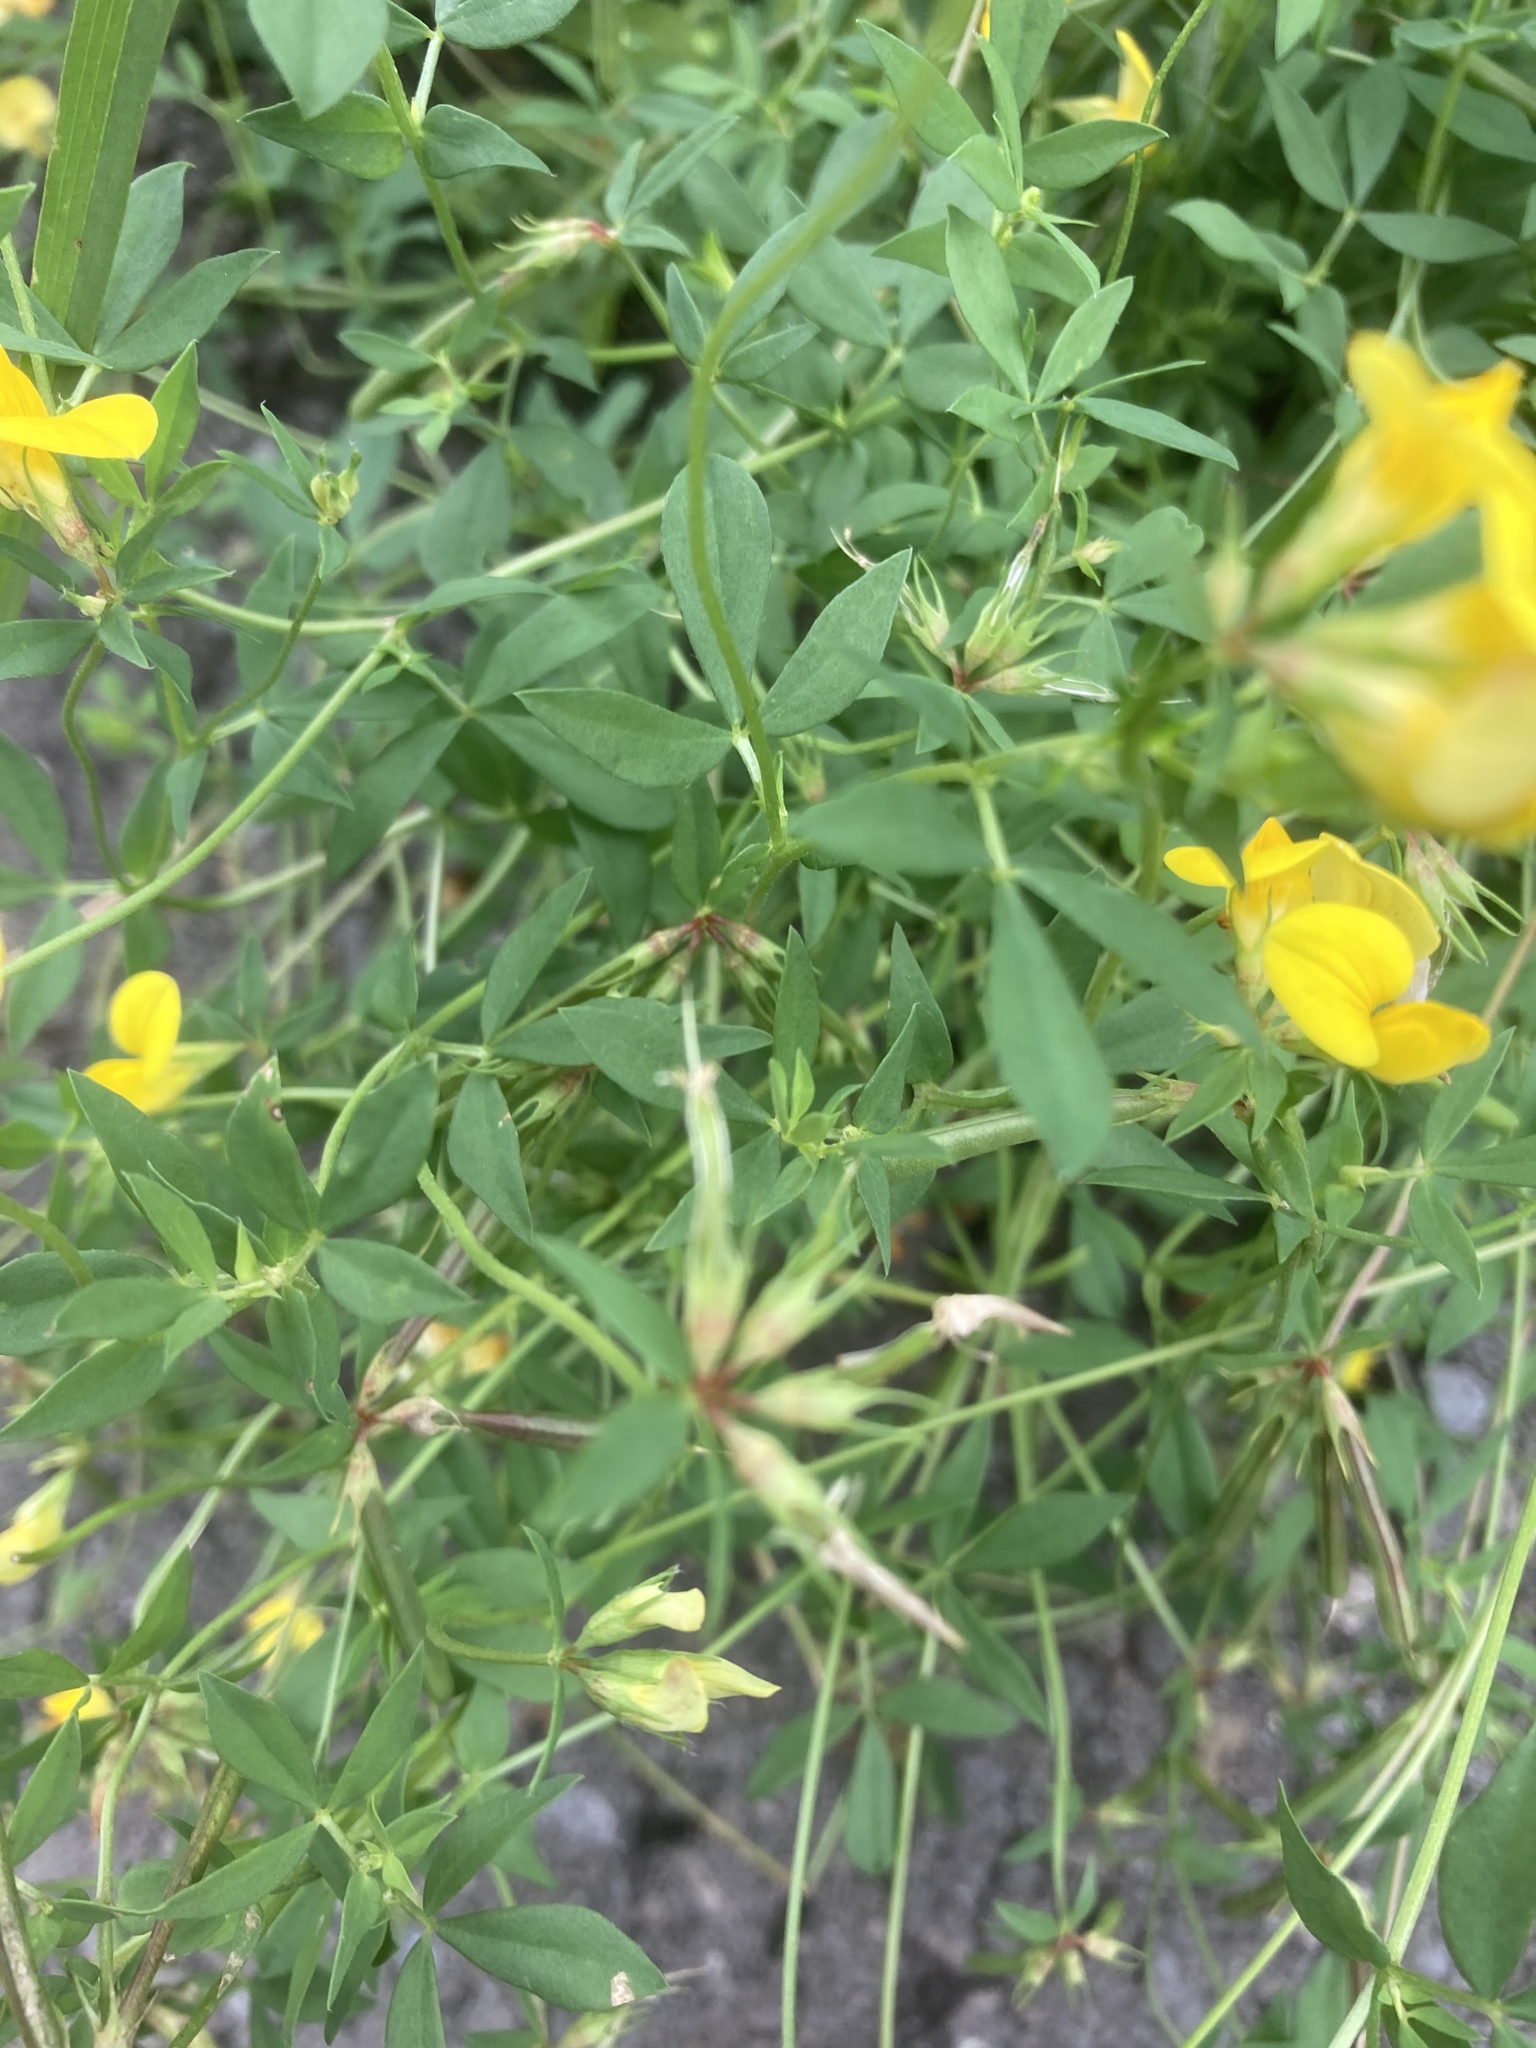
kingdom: Plantae
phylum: Tracheophyta
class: Magnoliopsida
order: Fabales
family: Fabaceae
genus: Lotus
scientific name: Lotus corniculatus
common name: Common bird's-foot-trefoil
